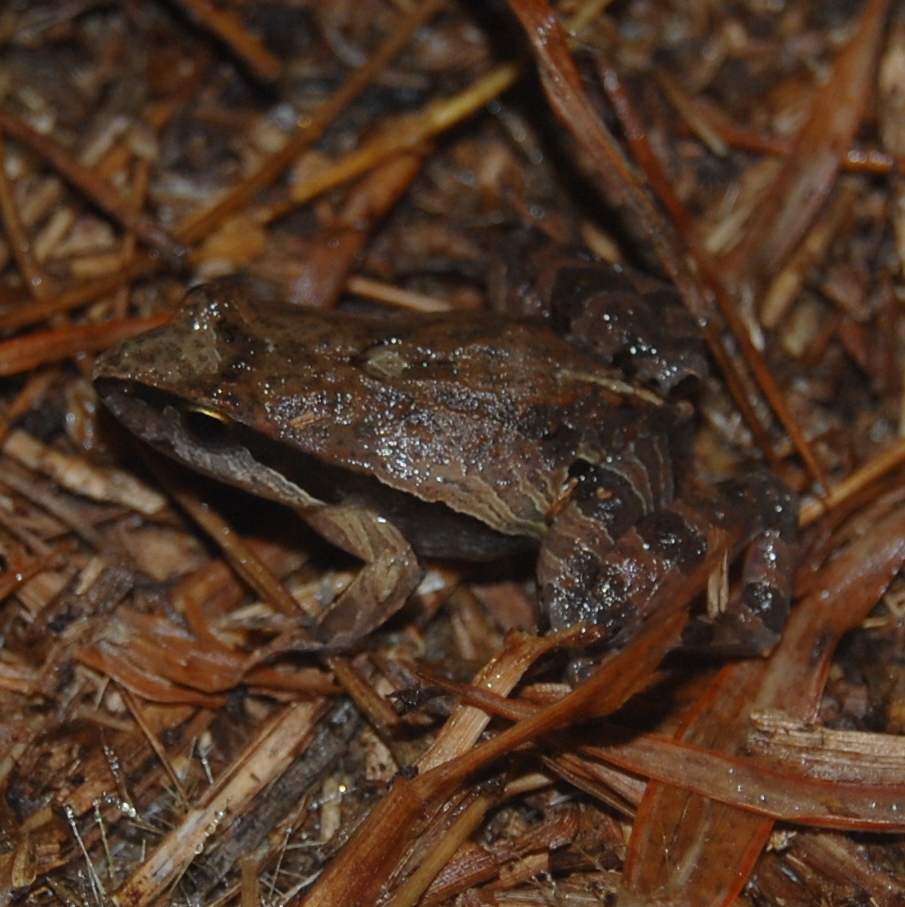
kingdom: Animalia
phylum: Chordata
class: Amphibia
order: Anura
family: Leptodactylidae
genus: Physalaemus
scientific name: Physalaemus gracilis
